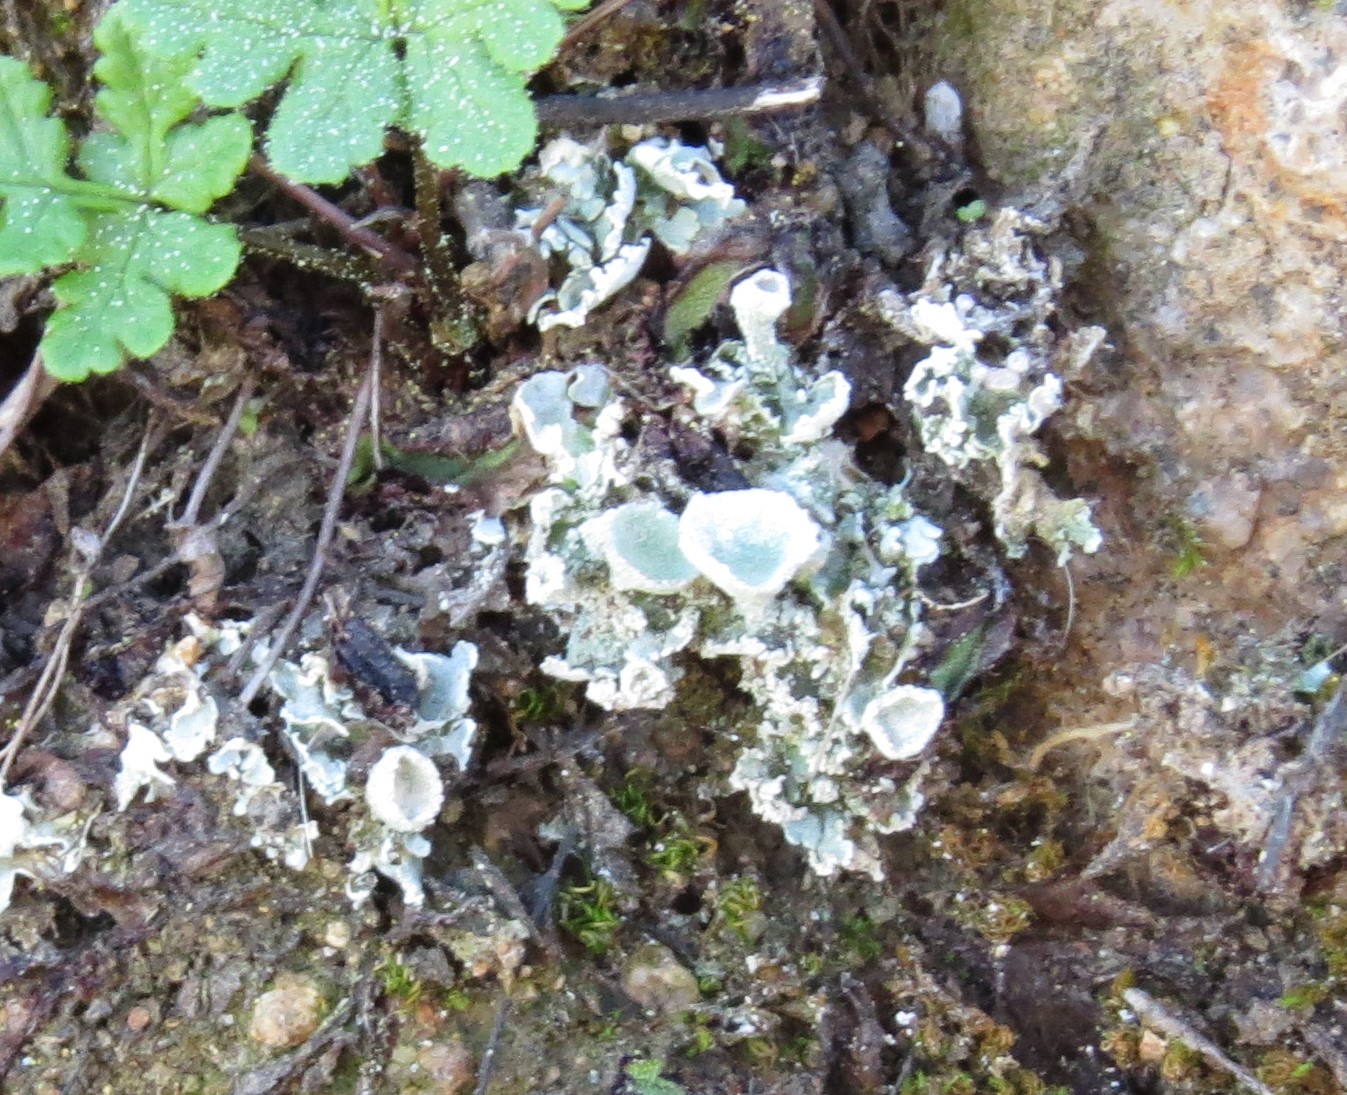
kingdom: Fungi
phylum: Ascomycota
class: Lecanoromycetes
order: Lecanorales
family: Cladoniaceae
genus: Cladonia
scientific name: Cladonia
